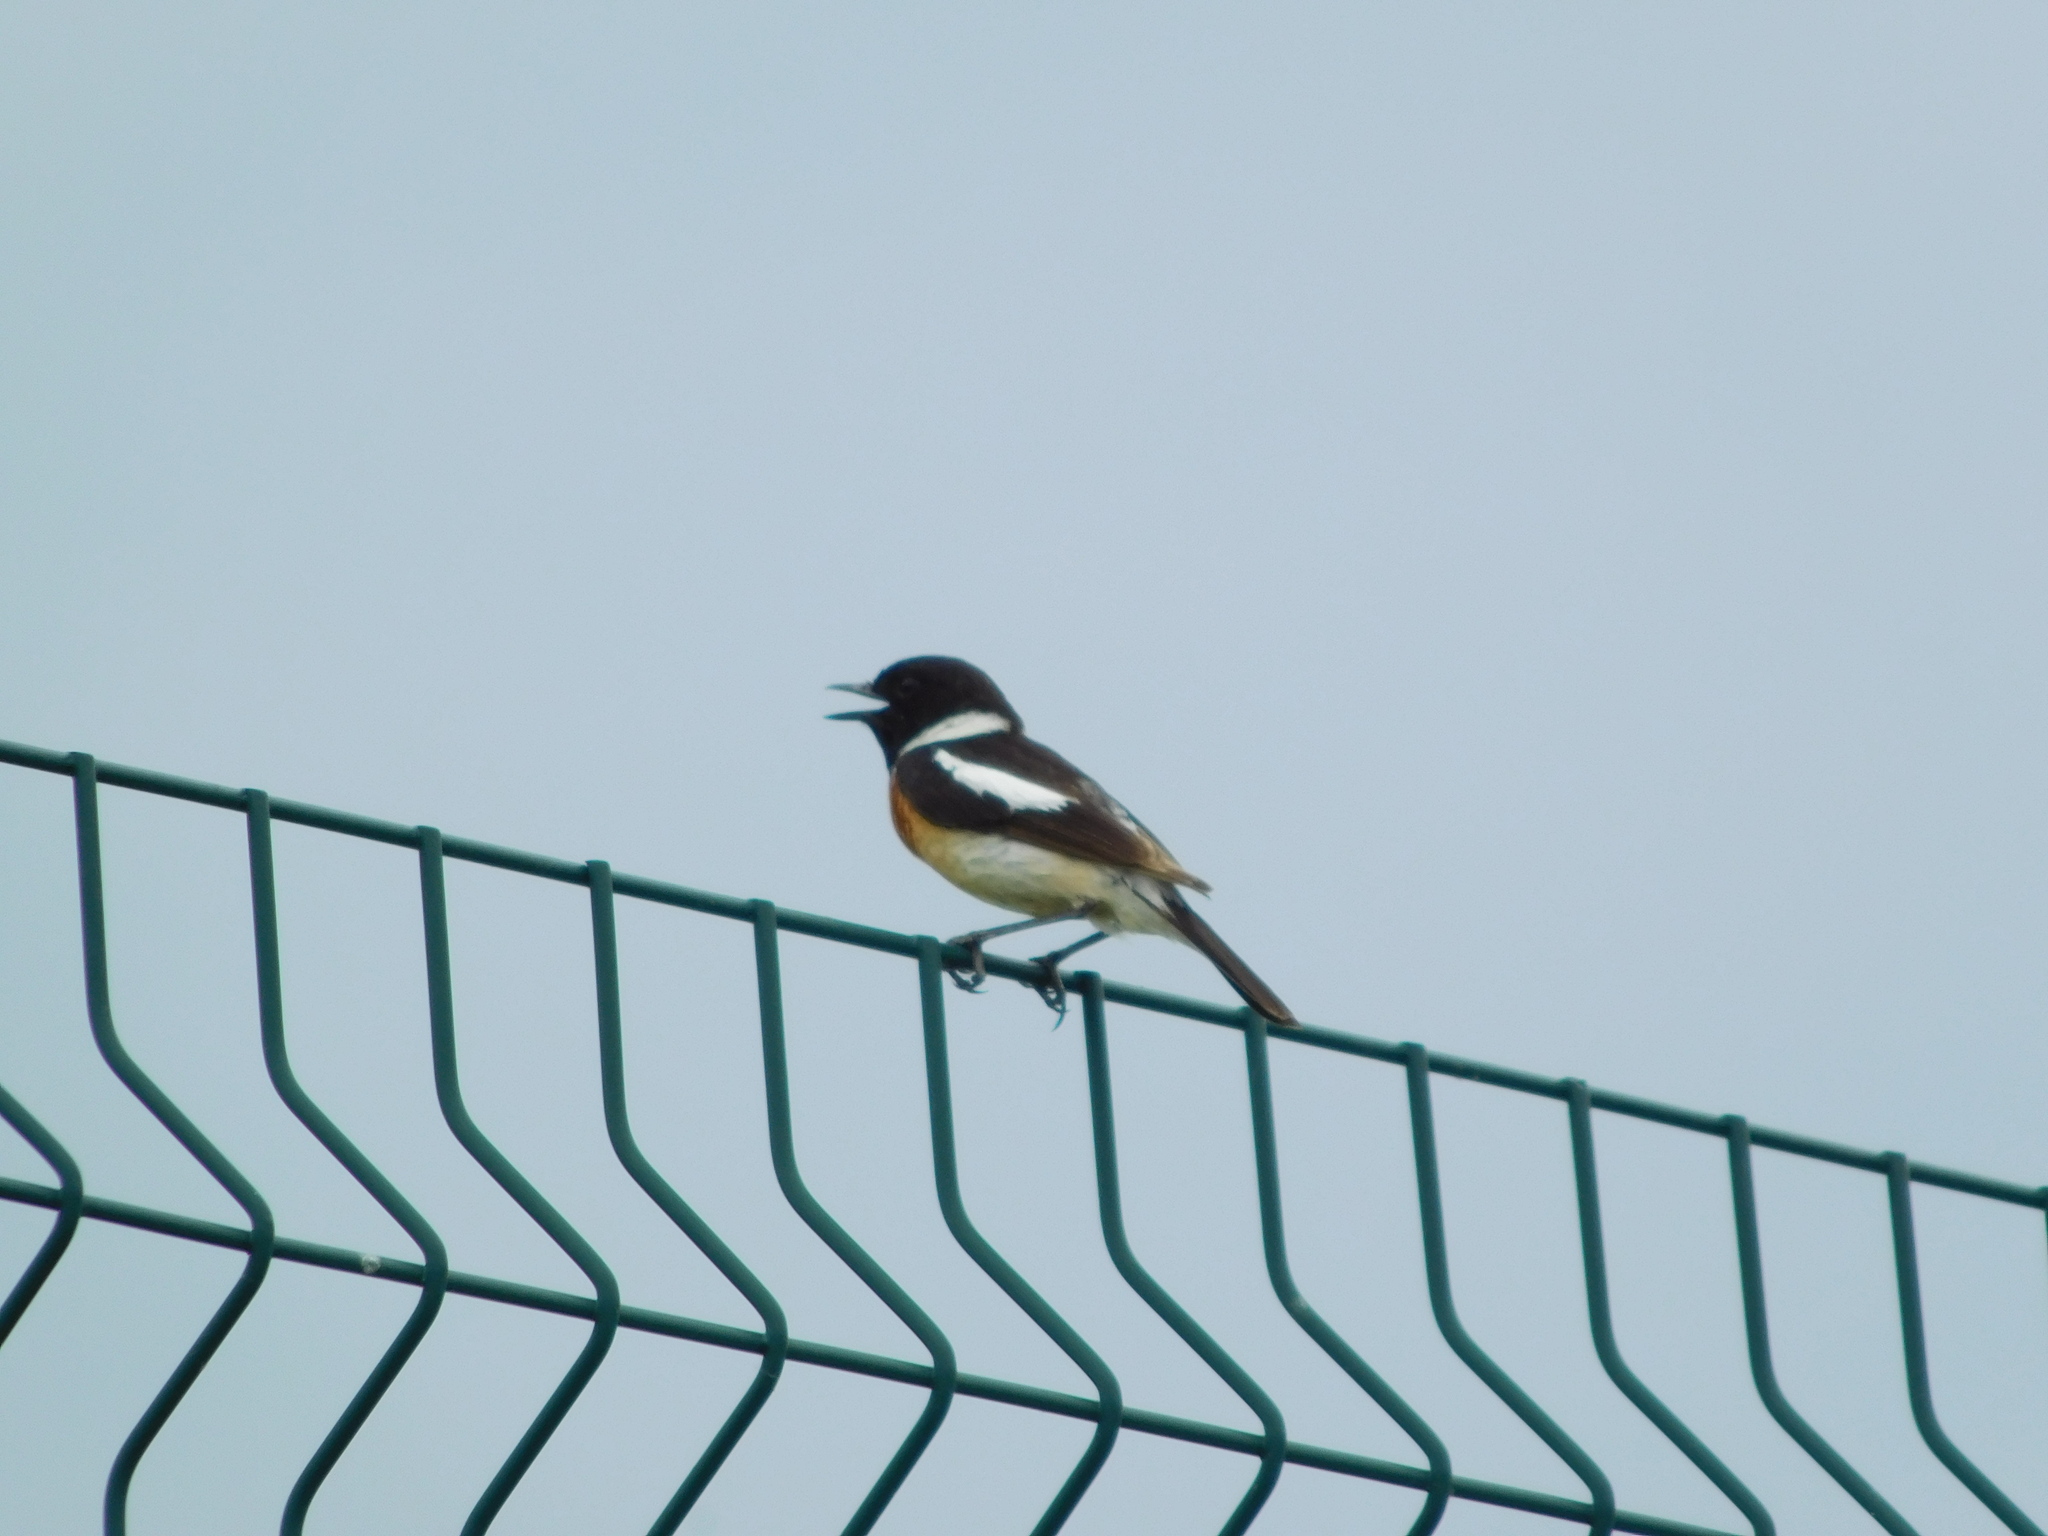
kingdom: Animalia
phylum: Chordata
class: Aves
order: Passeriformes
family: Muscicapidae
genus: Saxicola
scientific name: Saxicola maurus
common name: Siberian stonechat
